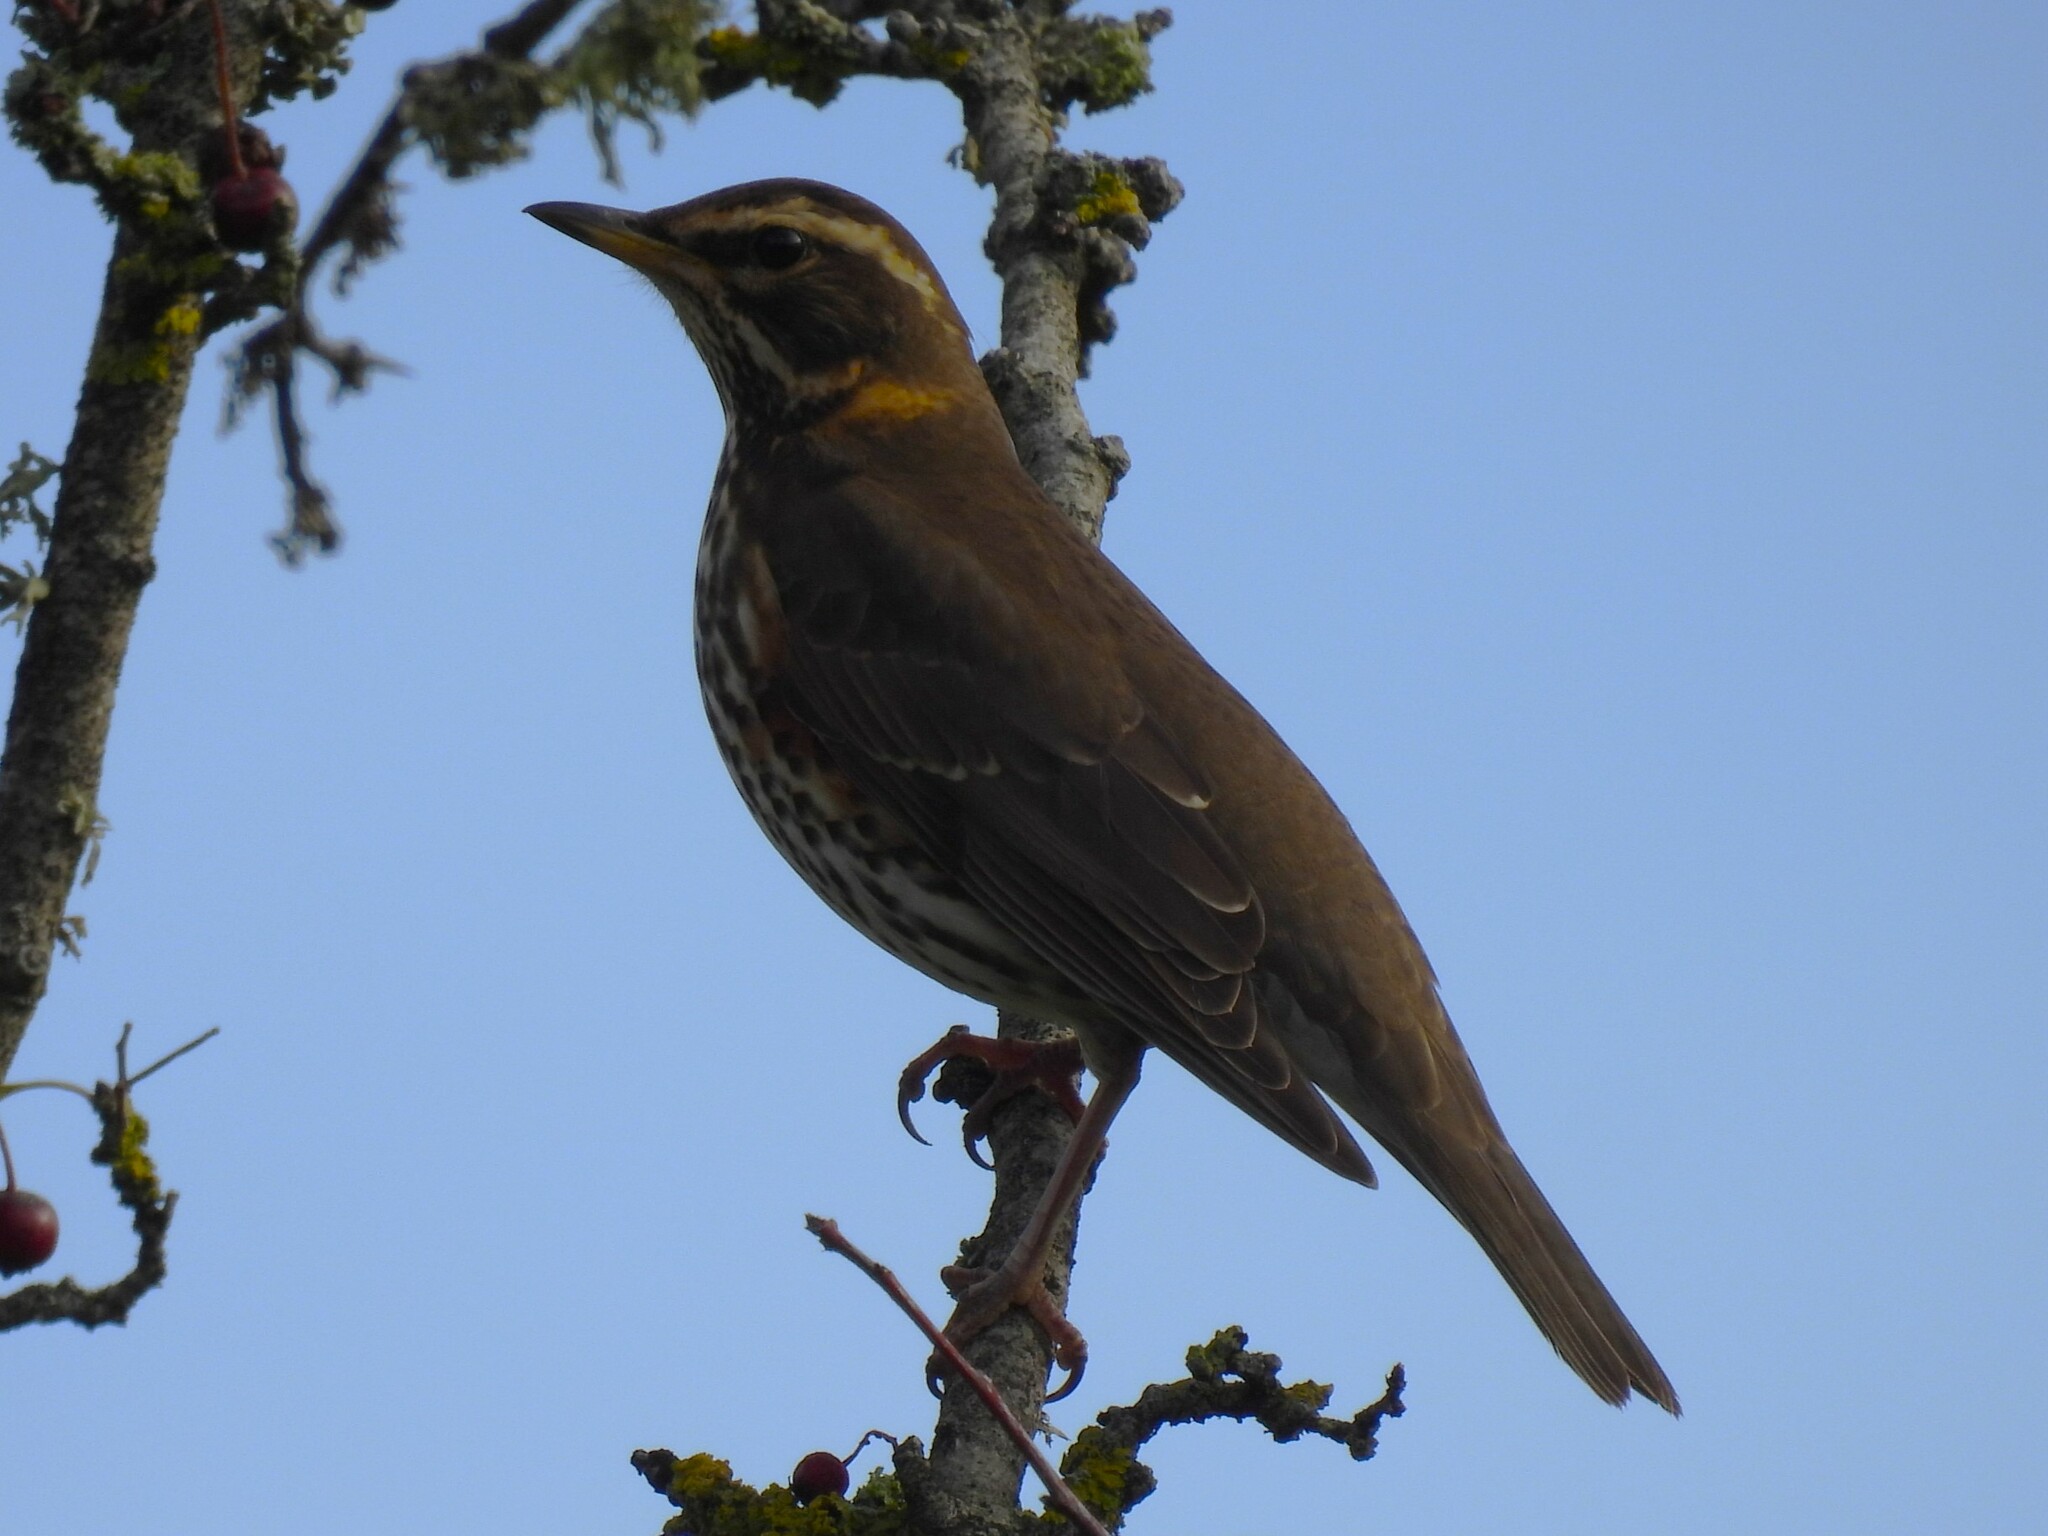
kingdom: Animalia
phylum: Chordata
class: Aves
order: Passeriformes
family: Turdidae
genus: Turdus
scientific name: Turdus iliacus
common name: Redwing
